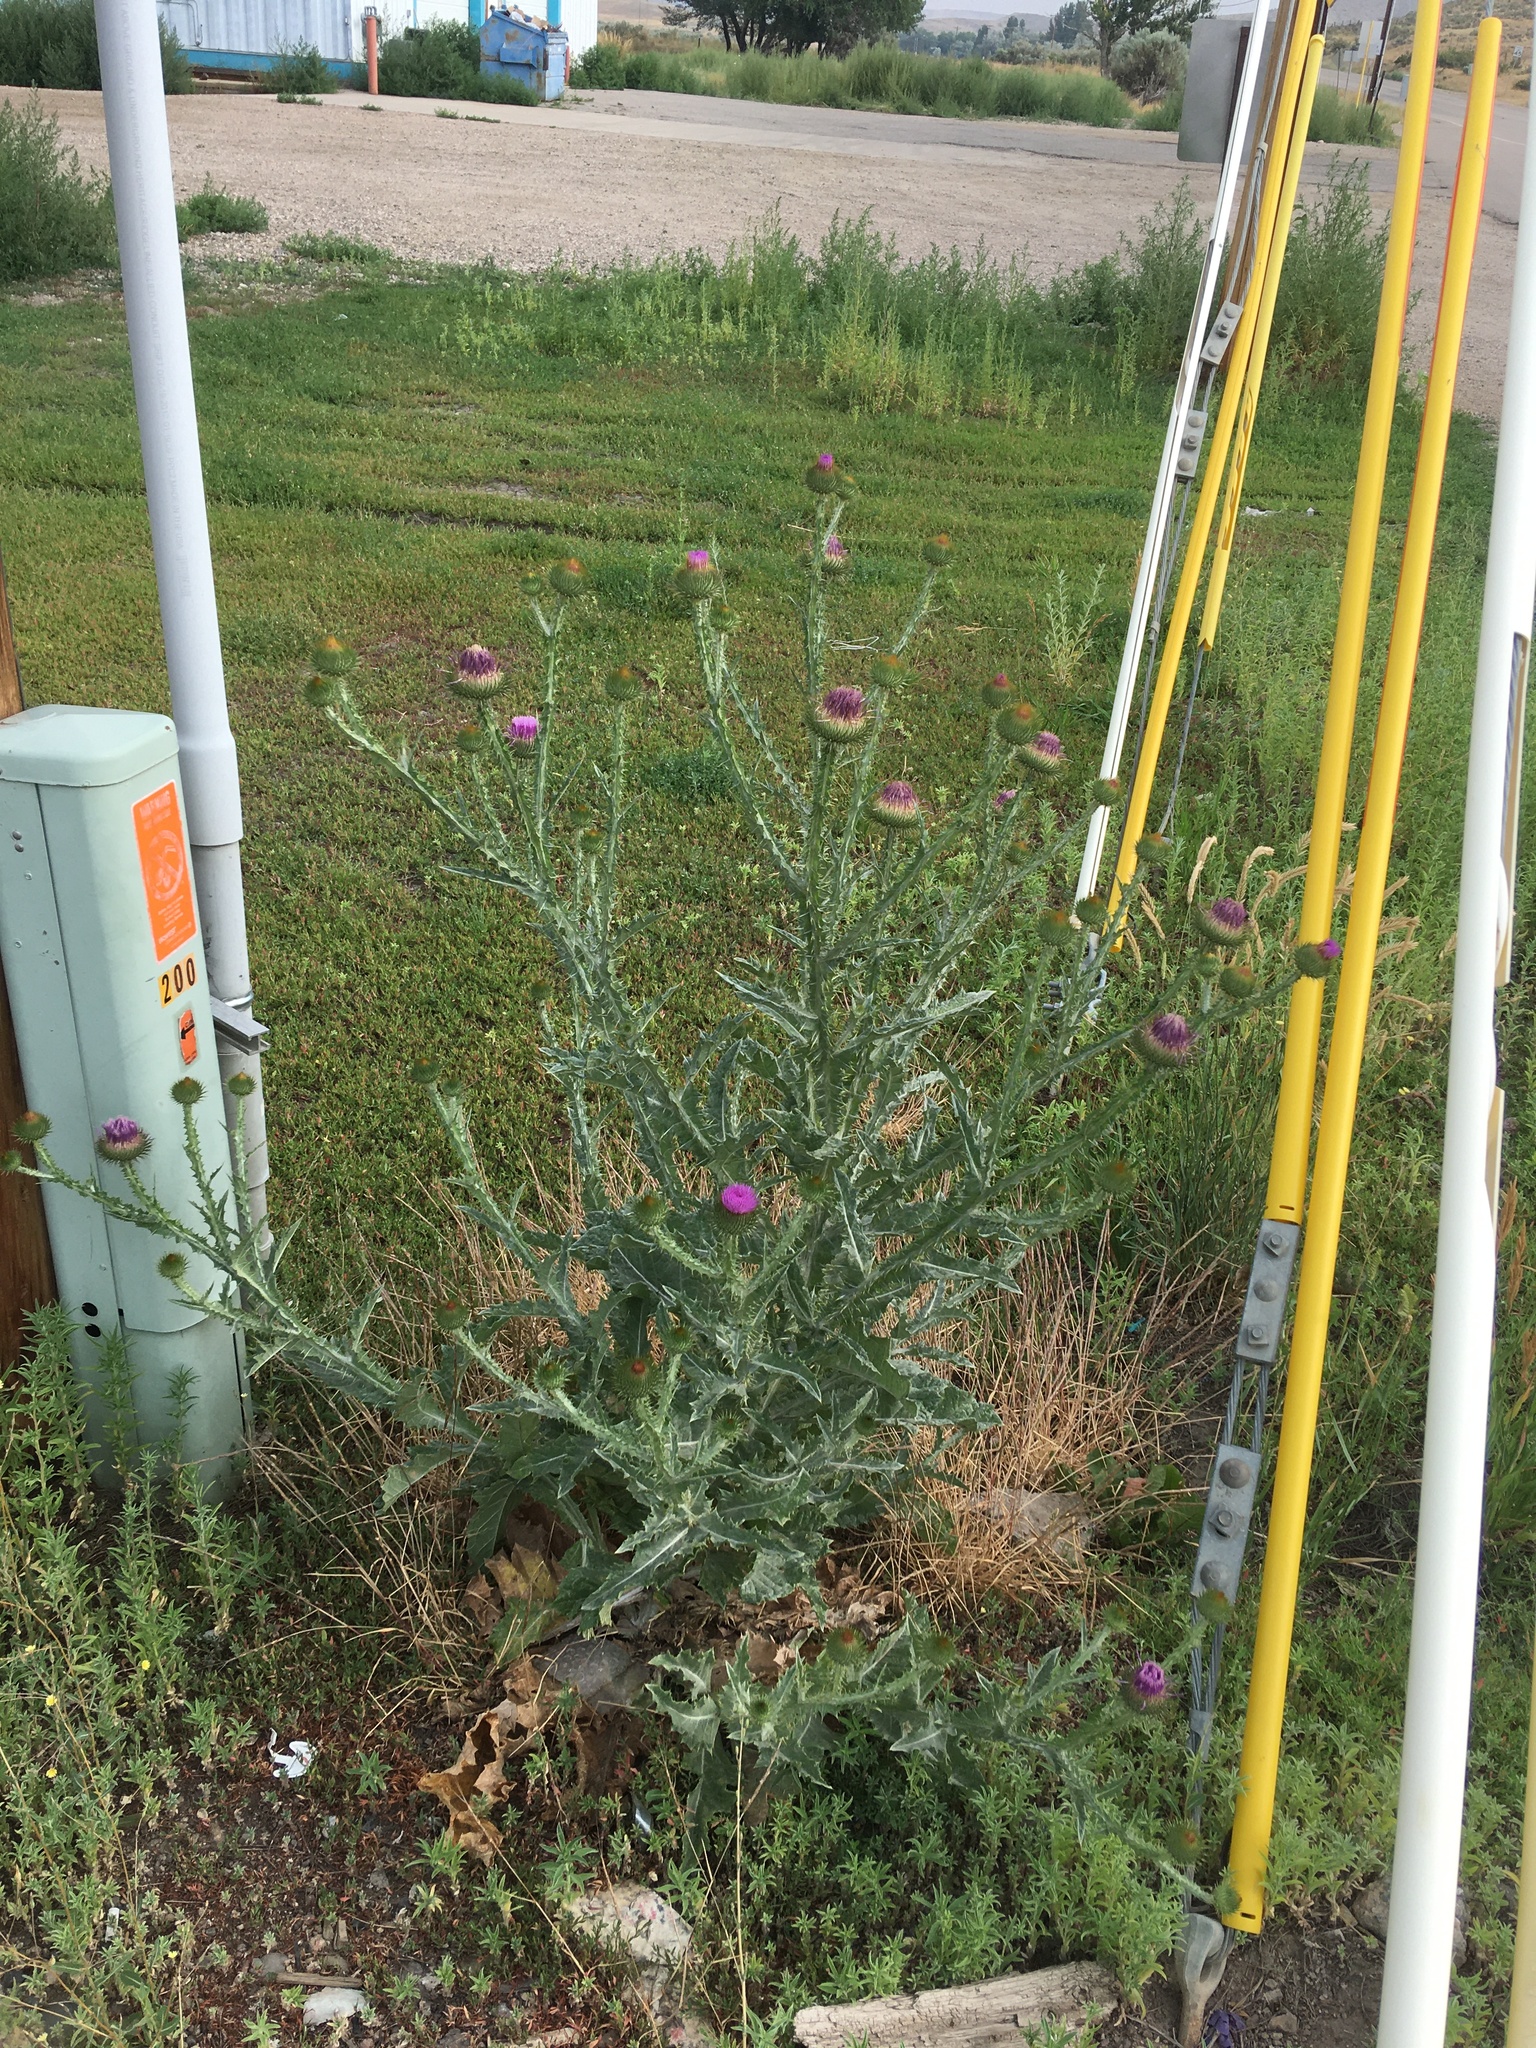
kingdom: Plantae
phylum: Tracheophyta
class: Magnoliopsida
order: Asterales
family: Asteraceae
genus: Onopordum
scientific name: Onopordum acanthium
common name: Scotch thistle
